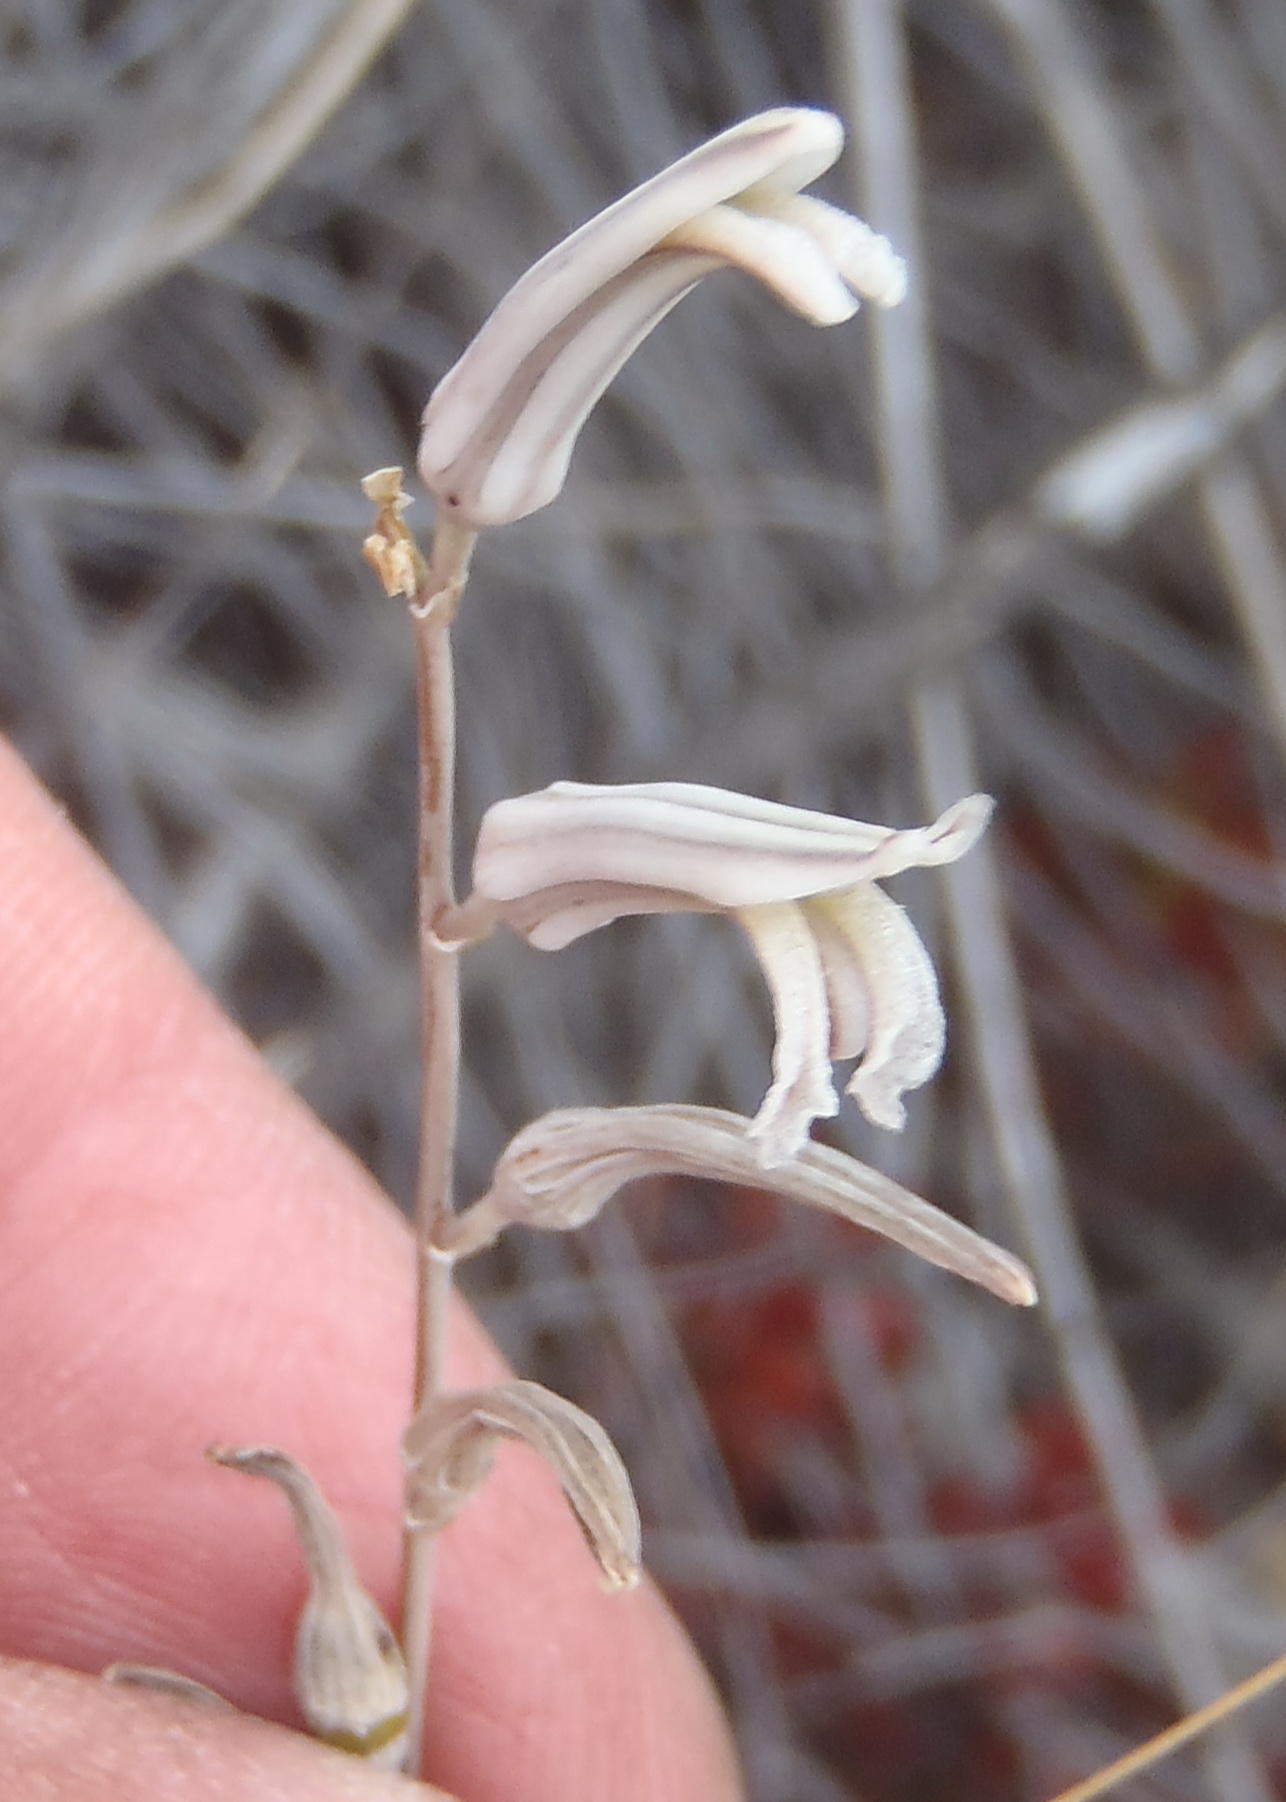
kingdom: Plantae
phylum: Tracheophyta
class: Liliopsida
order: Asparagales
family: Asphodelaceae
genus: Haworthiopsis
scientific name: Haworthiopsis scabra
